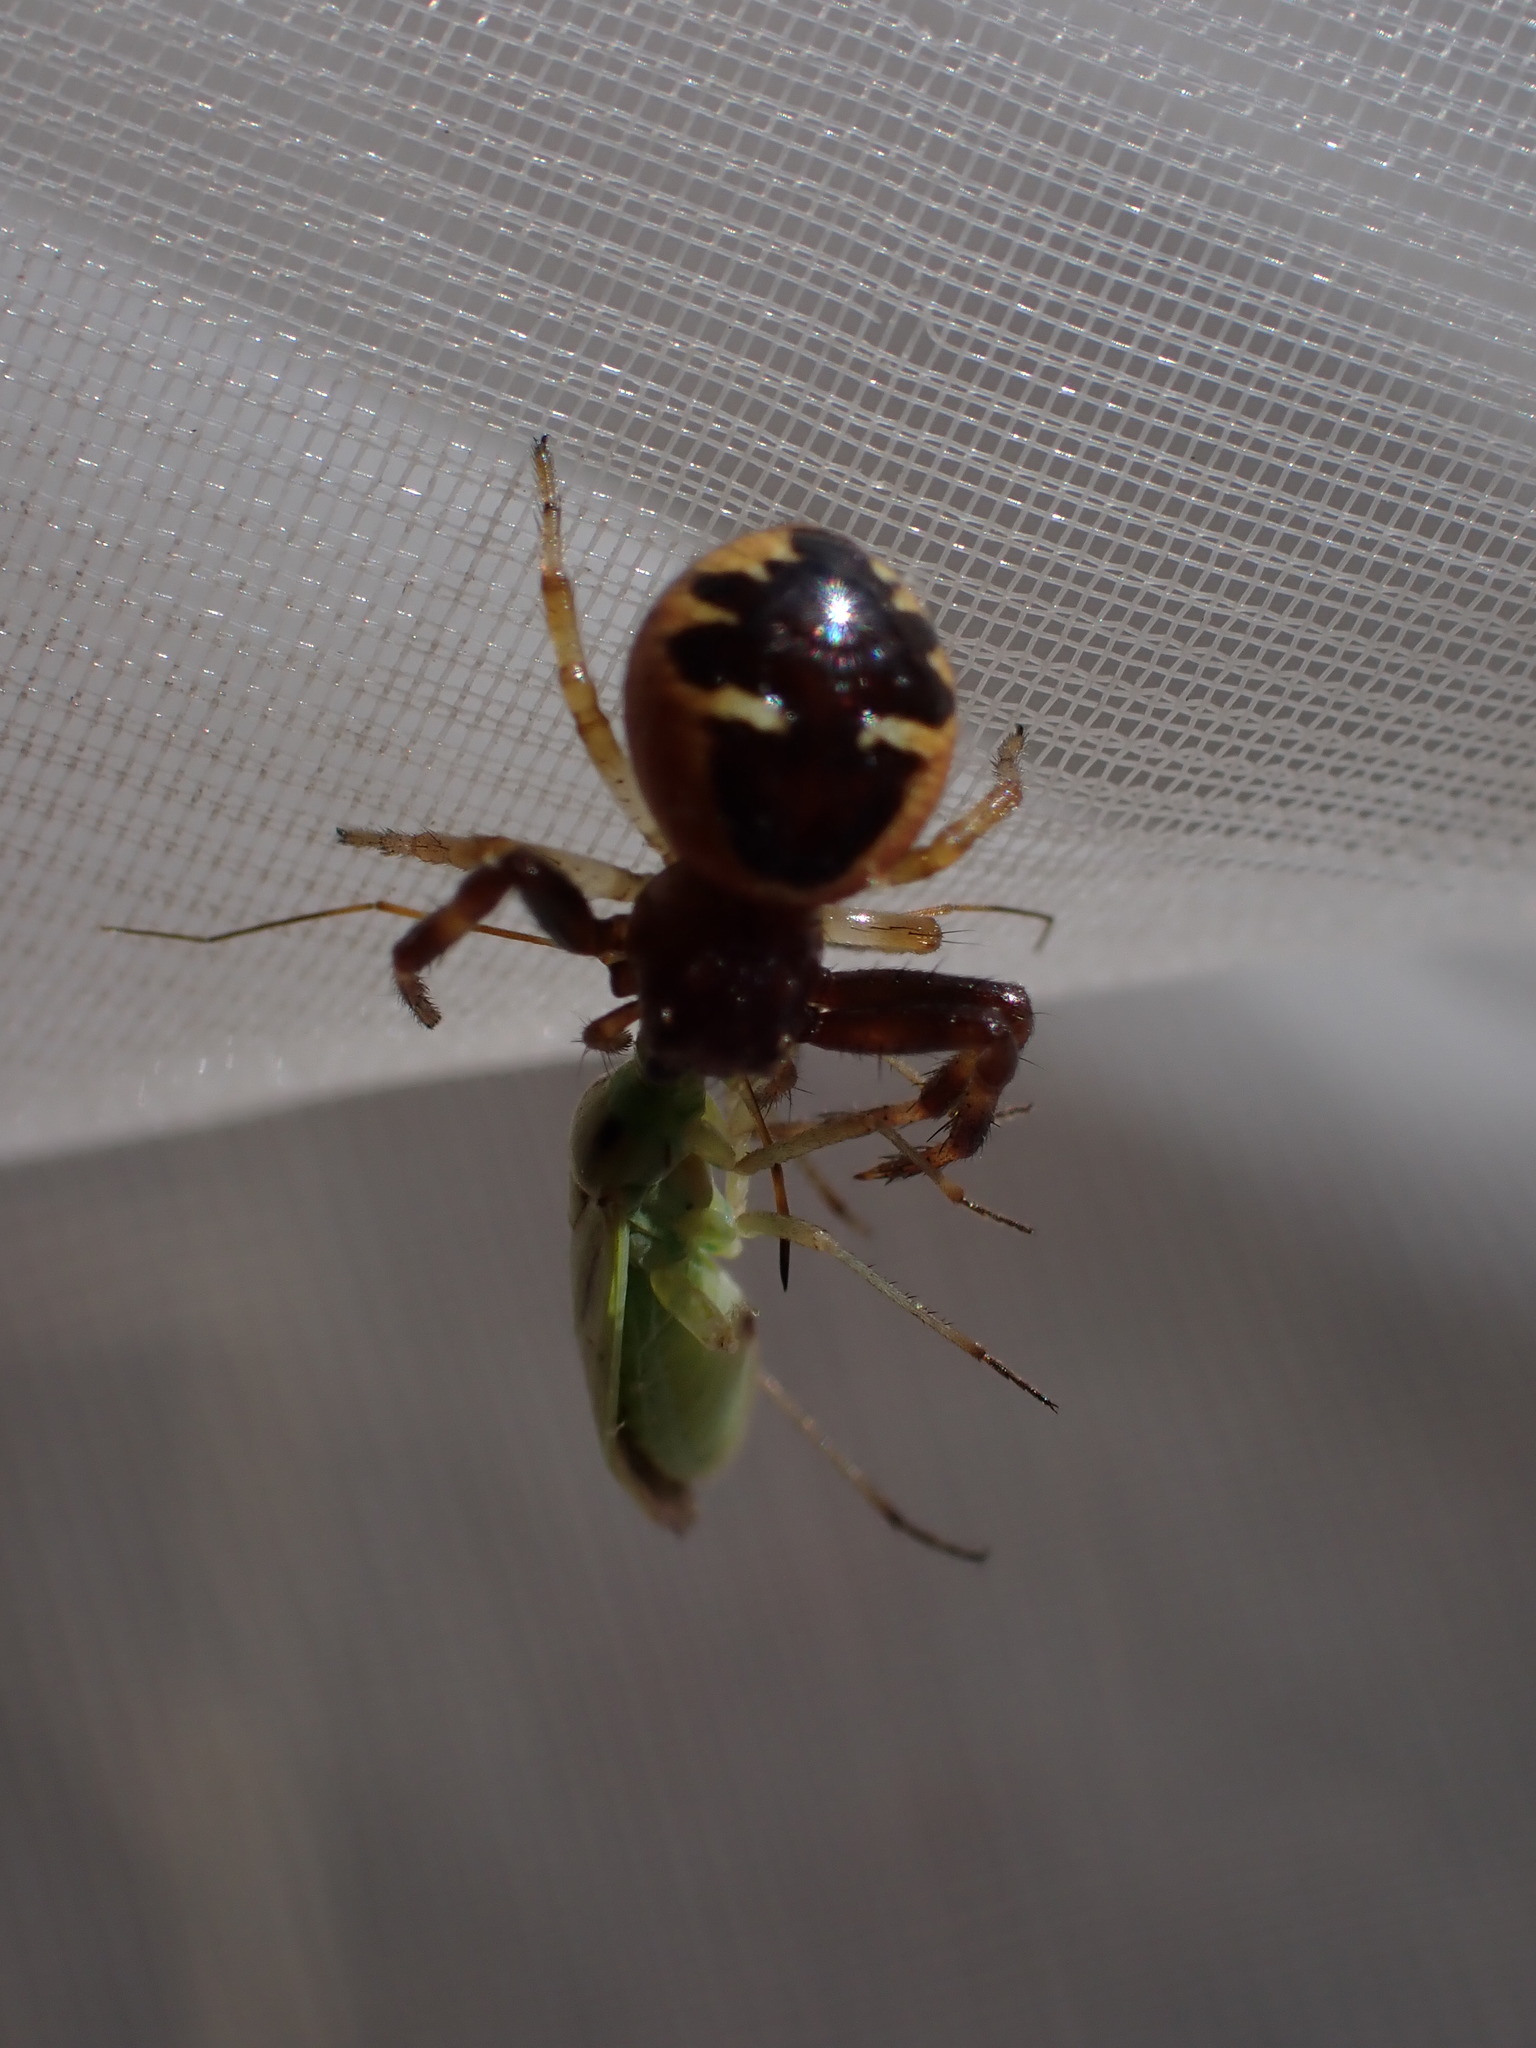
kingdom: Animalia
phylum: Arthropoda
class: Arachnida
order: Araneae
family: Thomisidae
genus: Synema
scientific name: Synema globosum
